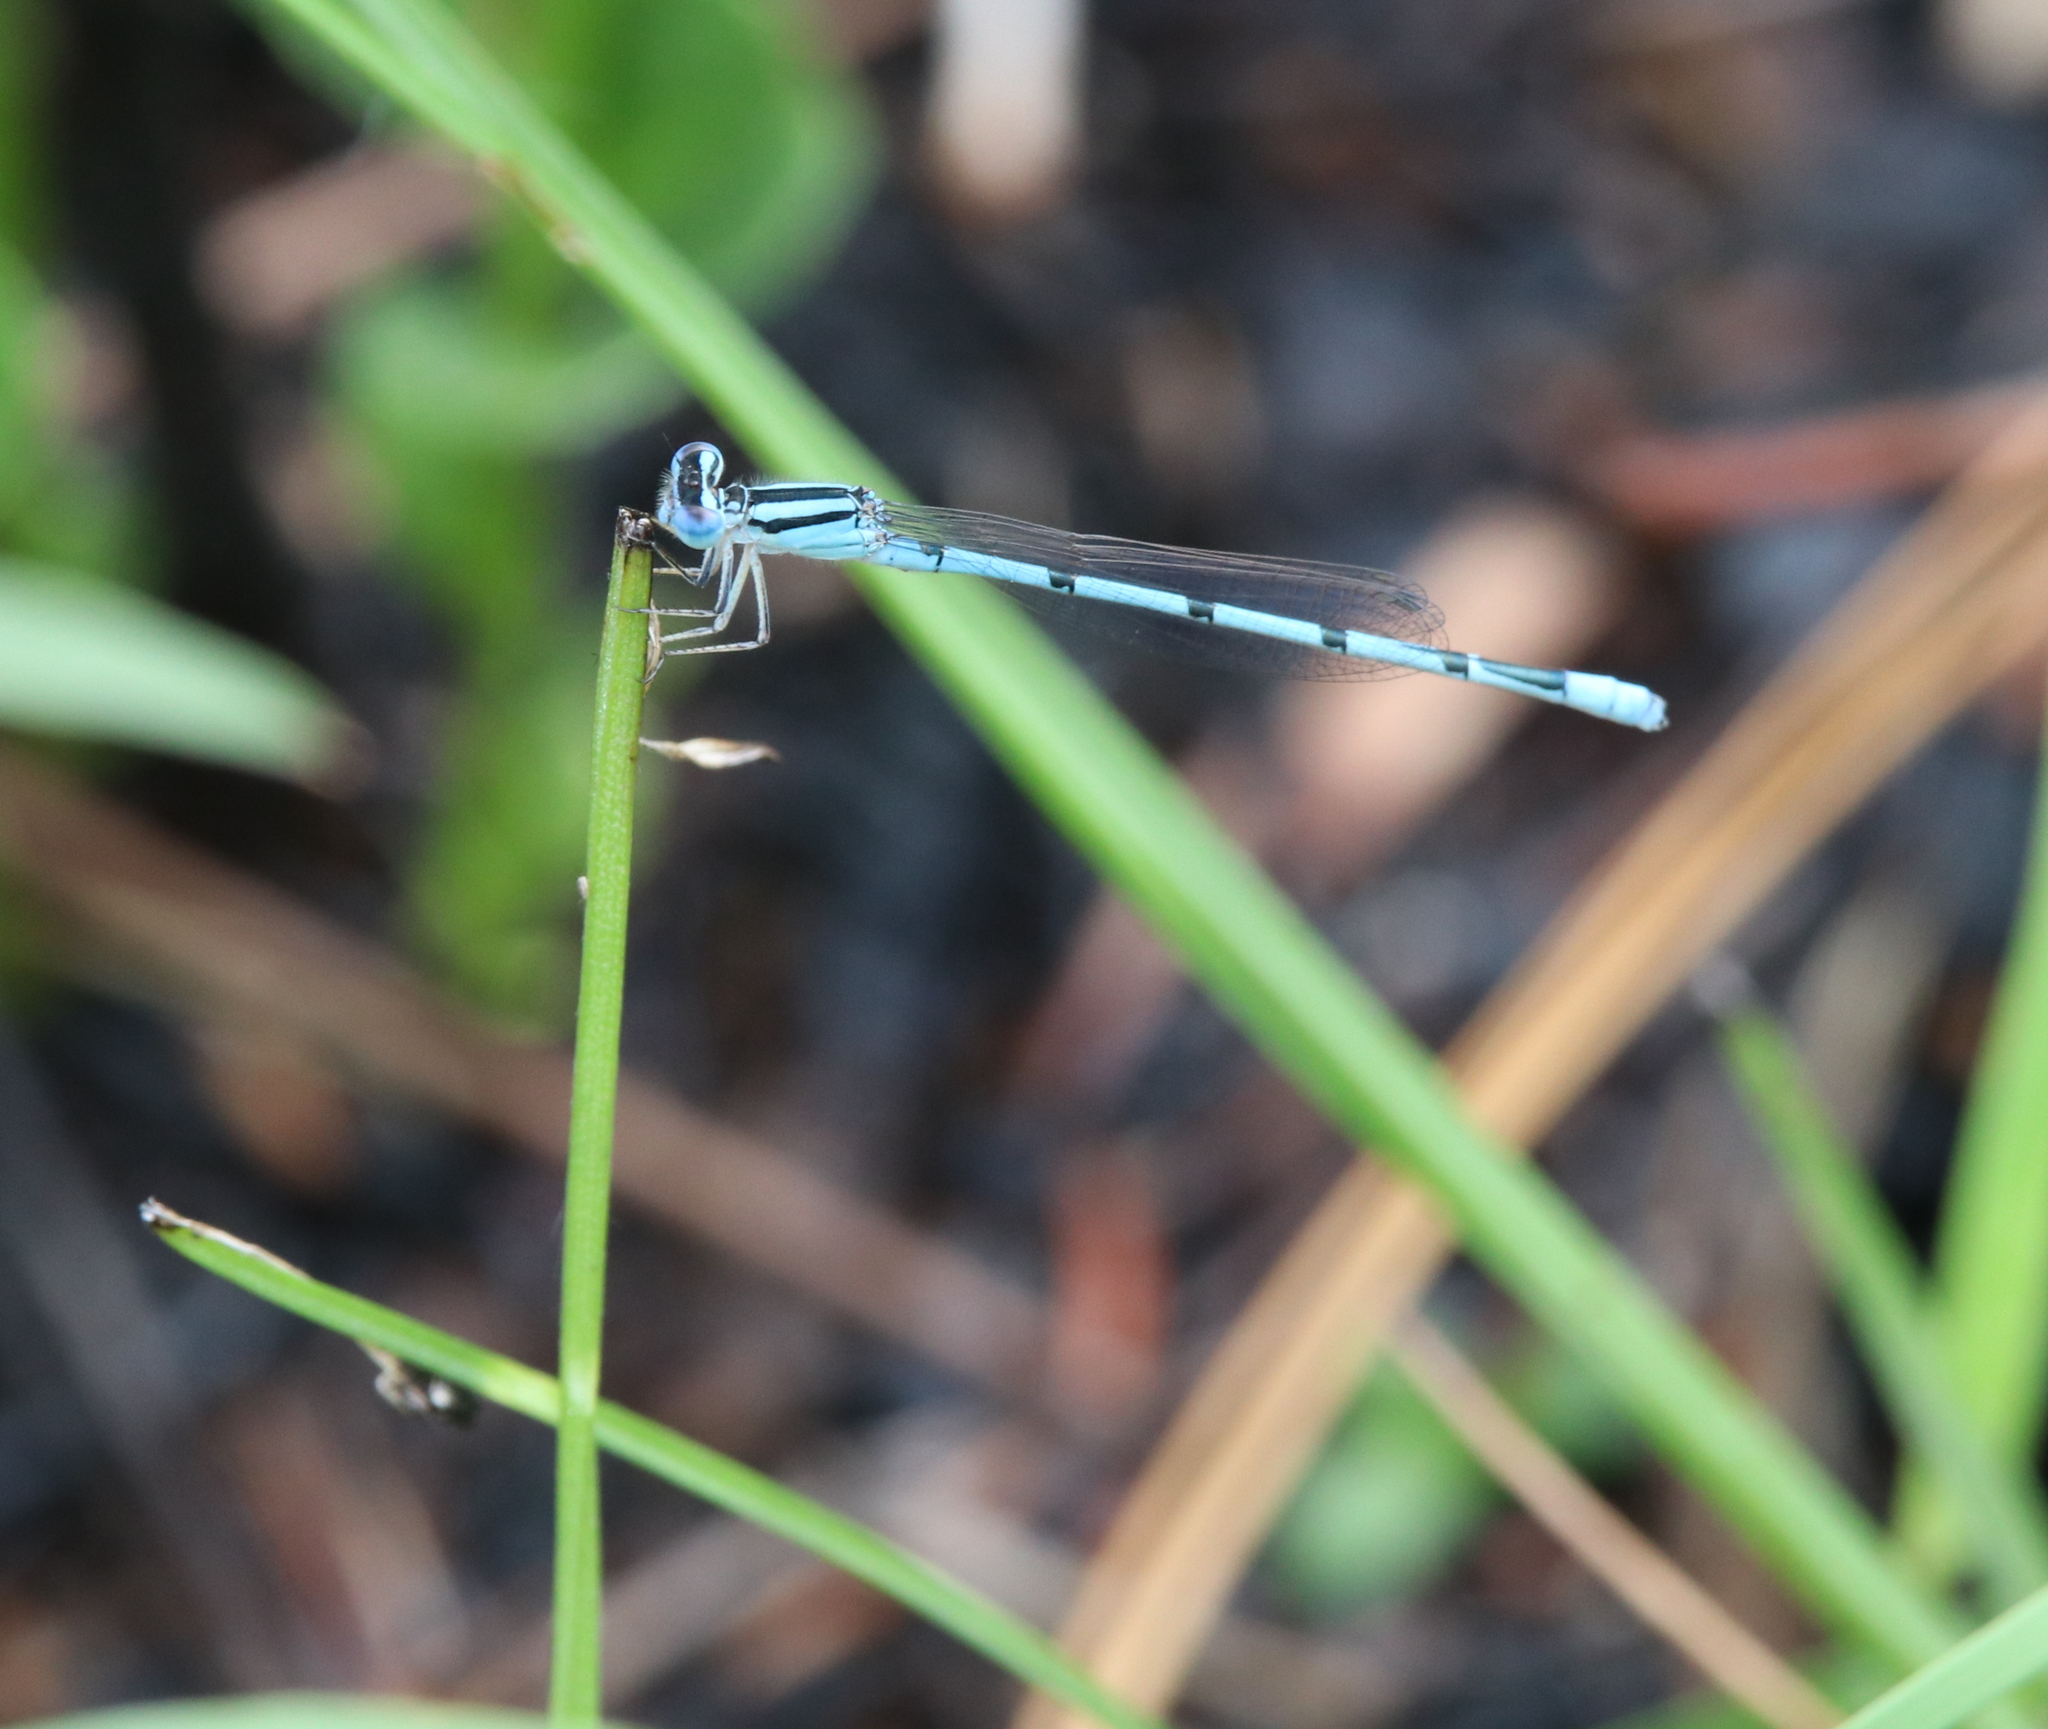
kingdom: Animalia
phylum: Arthropoda
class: Insecta
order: Odonata
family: Coenagrionidae
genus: Enallagma
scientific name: Enallagma doubledayi
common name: Atlantic bluet
